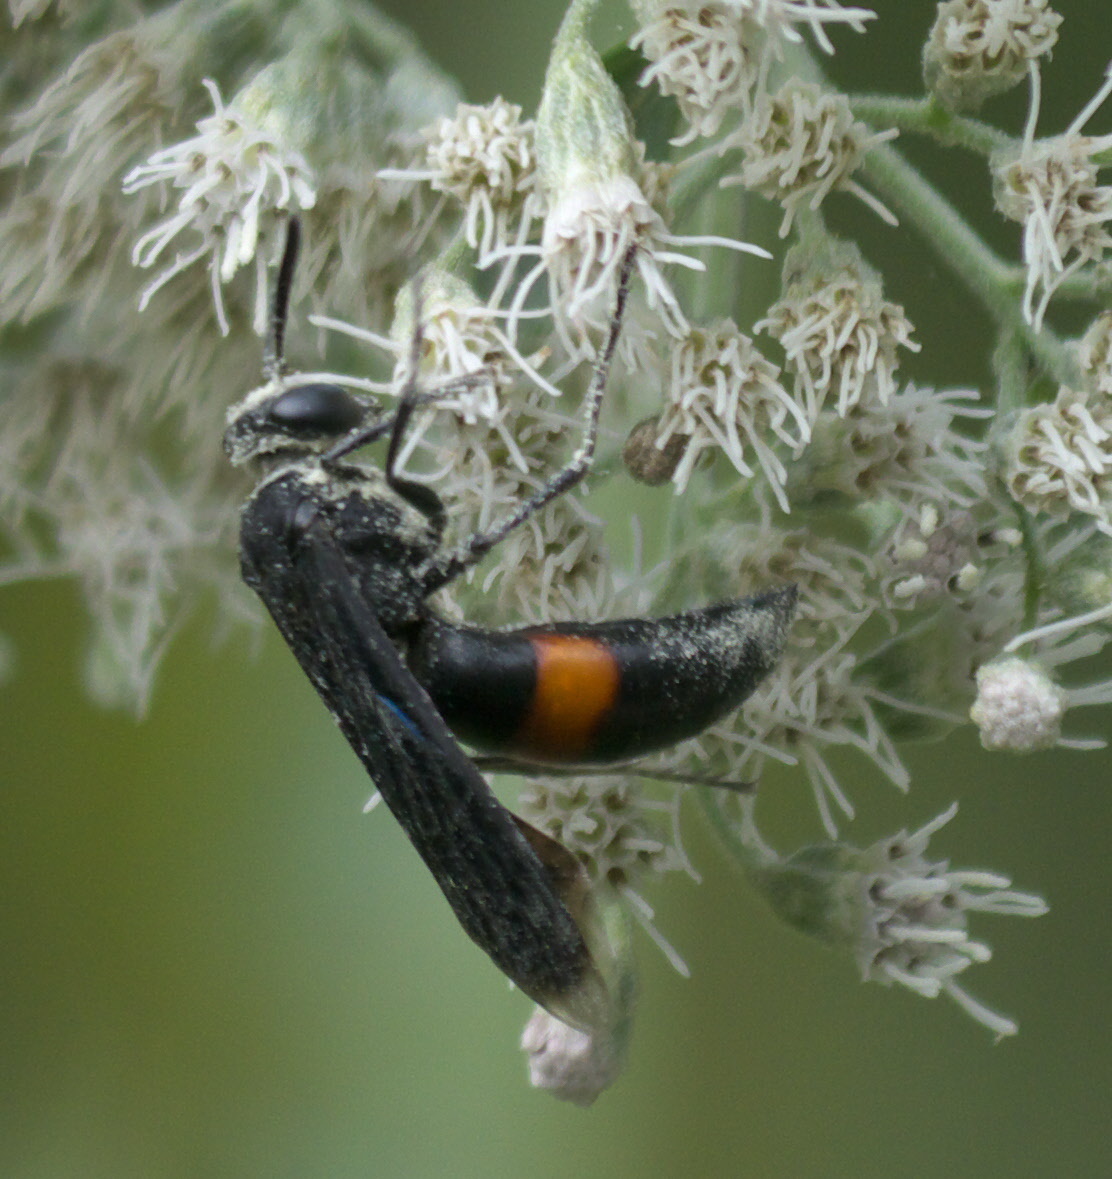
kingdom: Animalia
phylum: Arthropoda
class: Insecta
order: Hymenoptera
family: Crabronidae
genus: Stizoides
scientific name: Stizoides renicinctus
